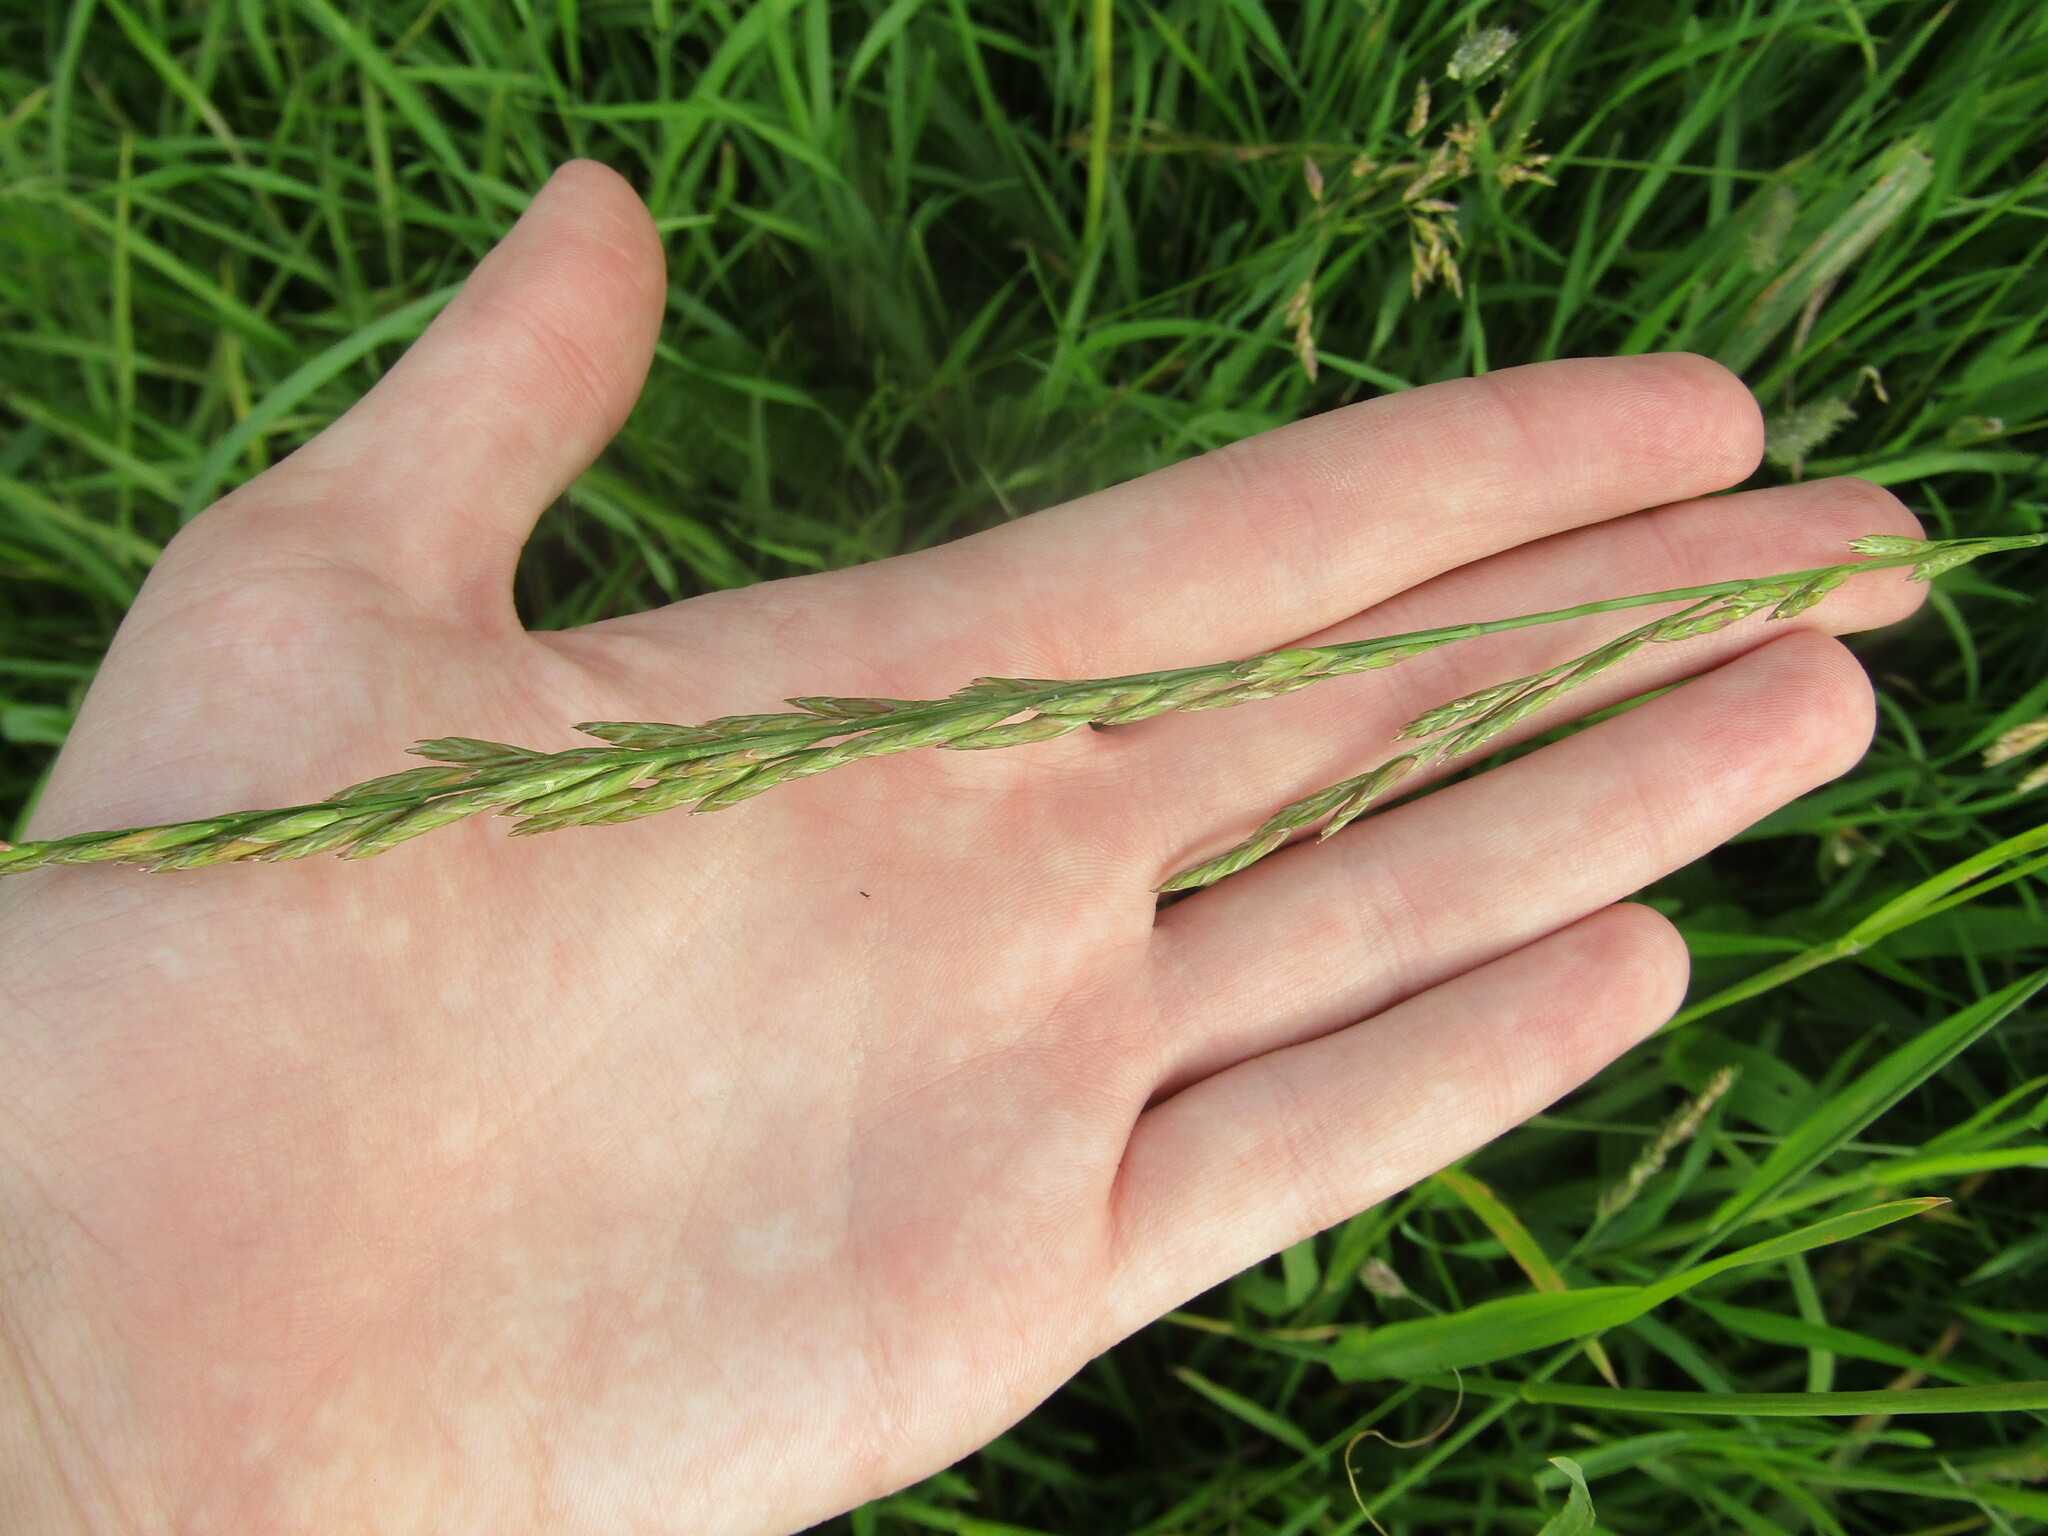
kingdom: Plantae
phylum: Tracheophyta
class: Liliopsida
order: Poales
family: Poaceae
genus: Lolium
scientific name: Lolium pratense
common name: Dover grass
